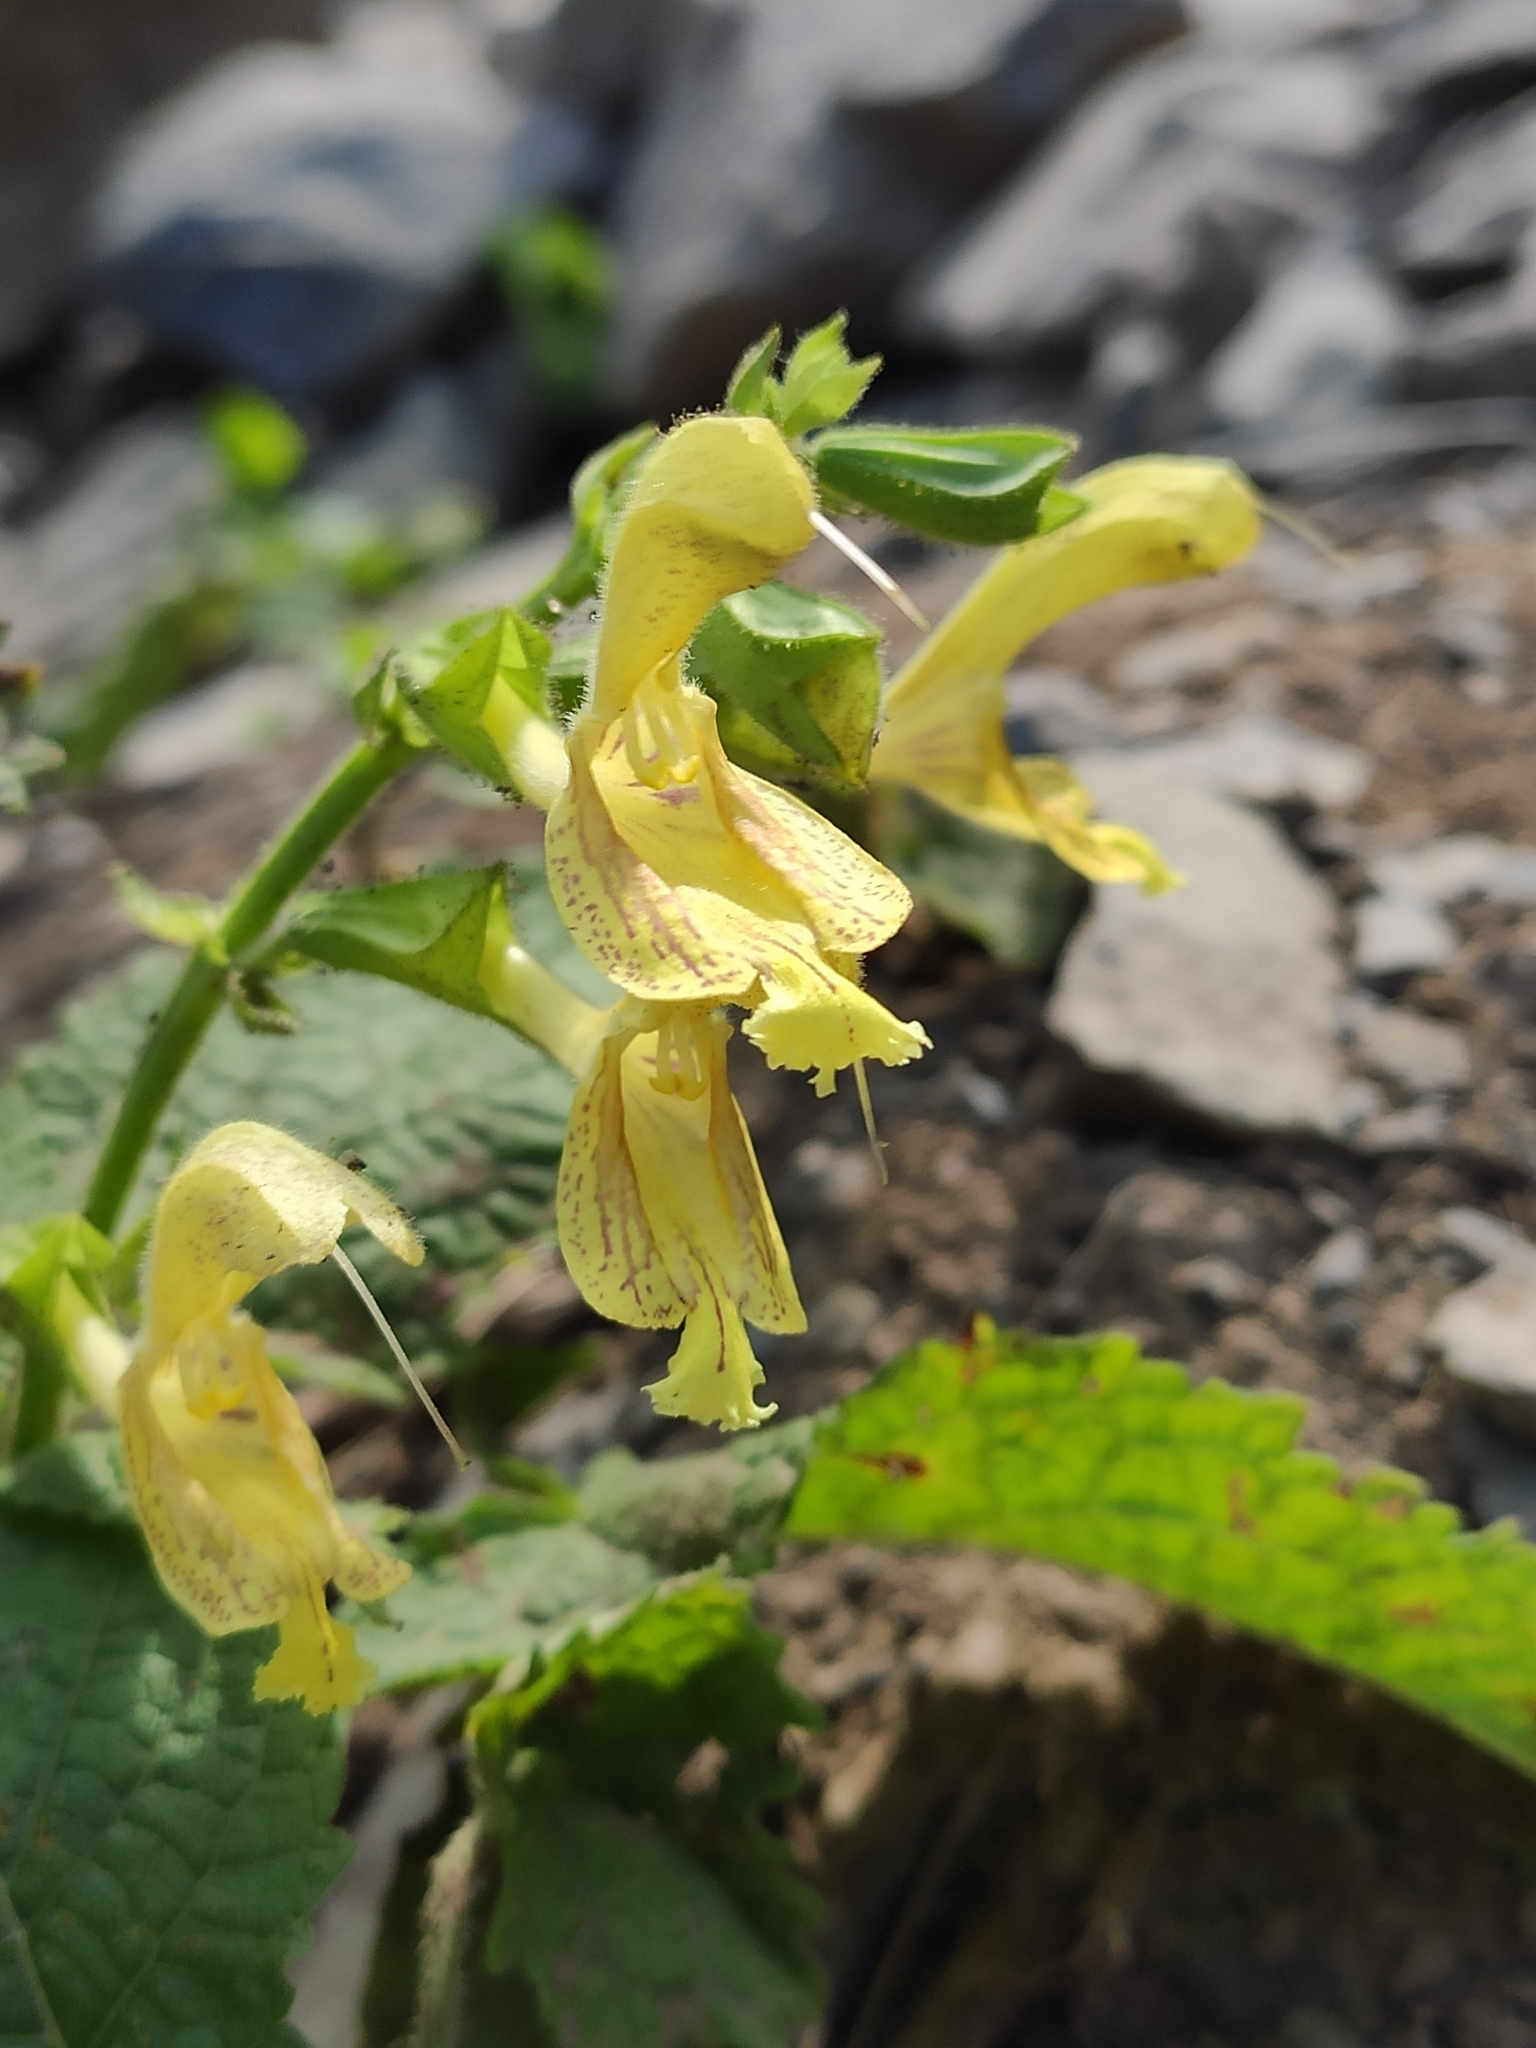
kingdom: Plantae
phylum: Tracheophyta
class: Magnoliopsida
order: Lamiales
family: Lamiaceae
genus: Salvia
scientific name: Salvia glutinosa
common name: Sticky clary
